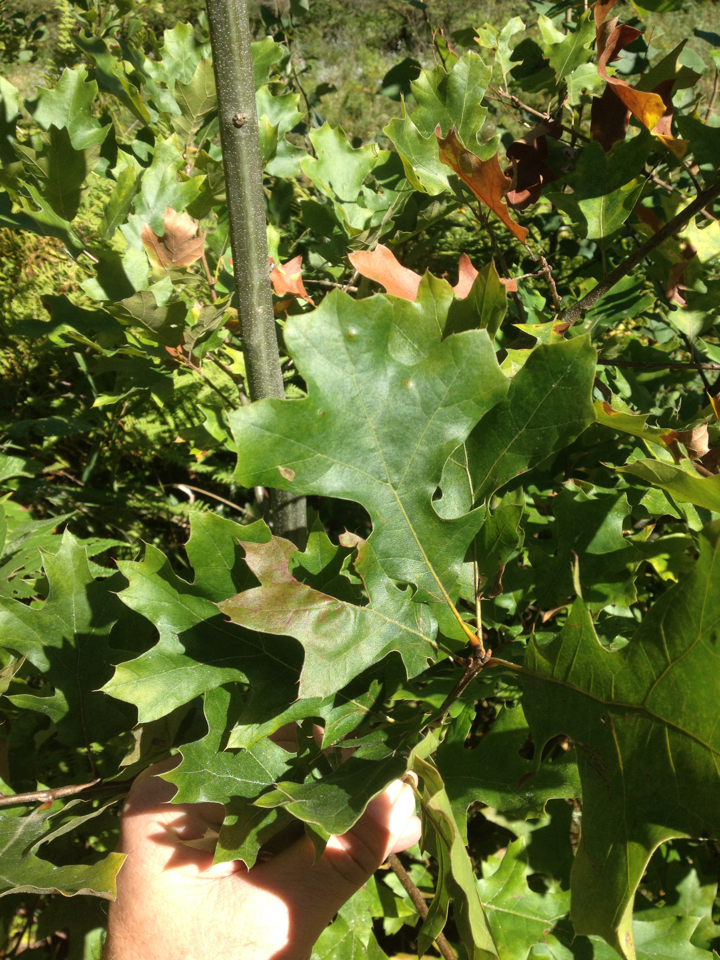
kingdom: Plantae
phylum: Tracheophyta
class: Magnoliopsida
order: Fagales
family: Fagaceae
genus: Quercus
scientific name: Quercus velutina
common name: Black oak
